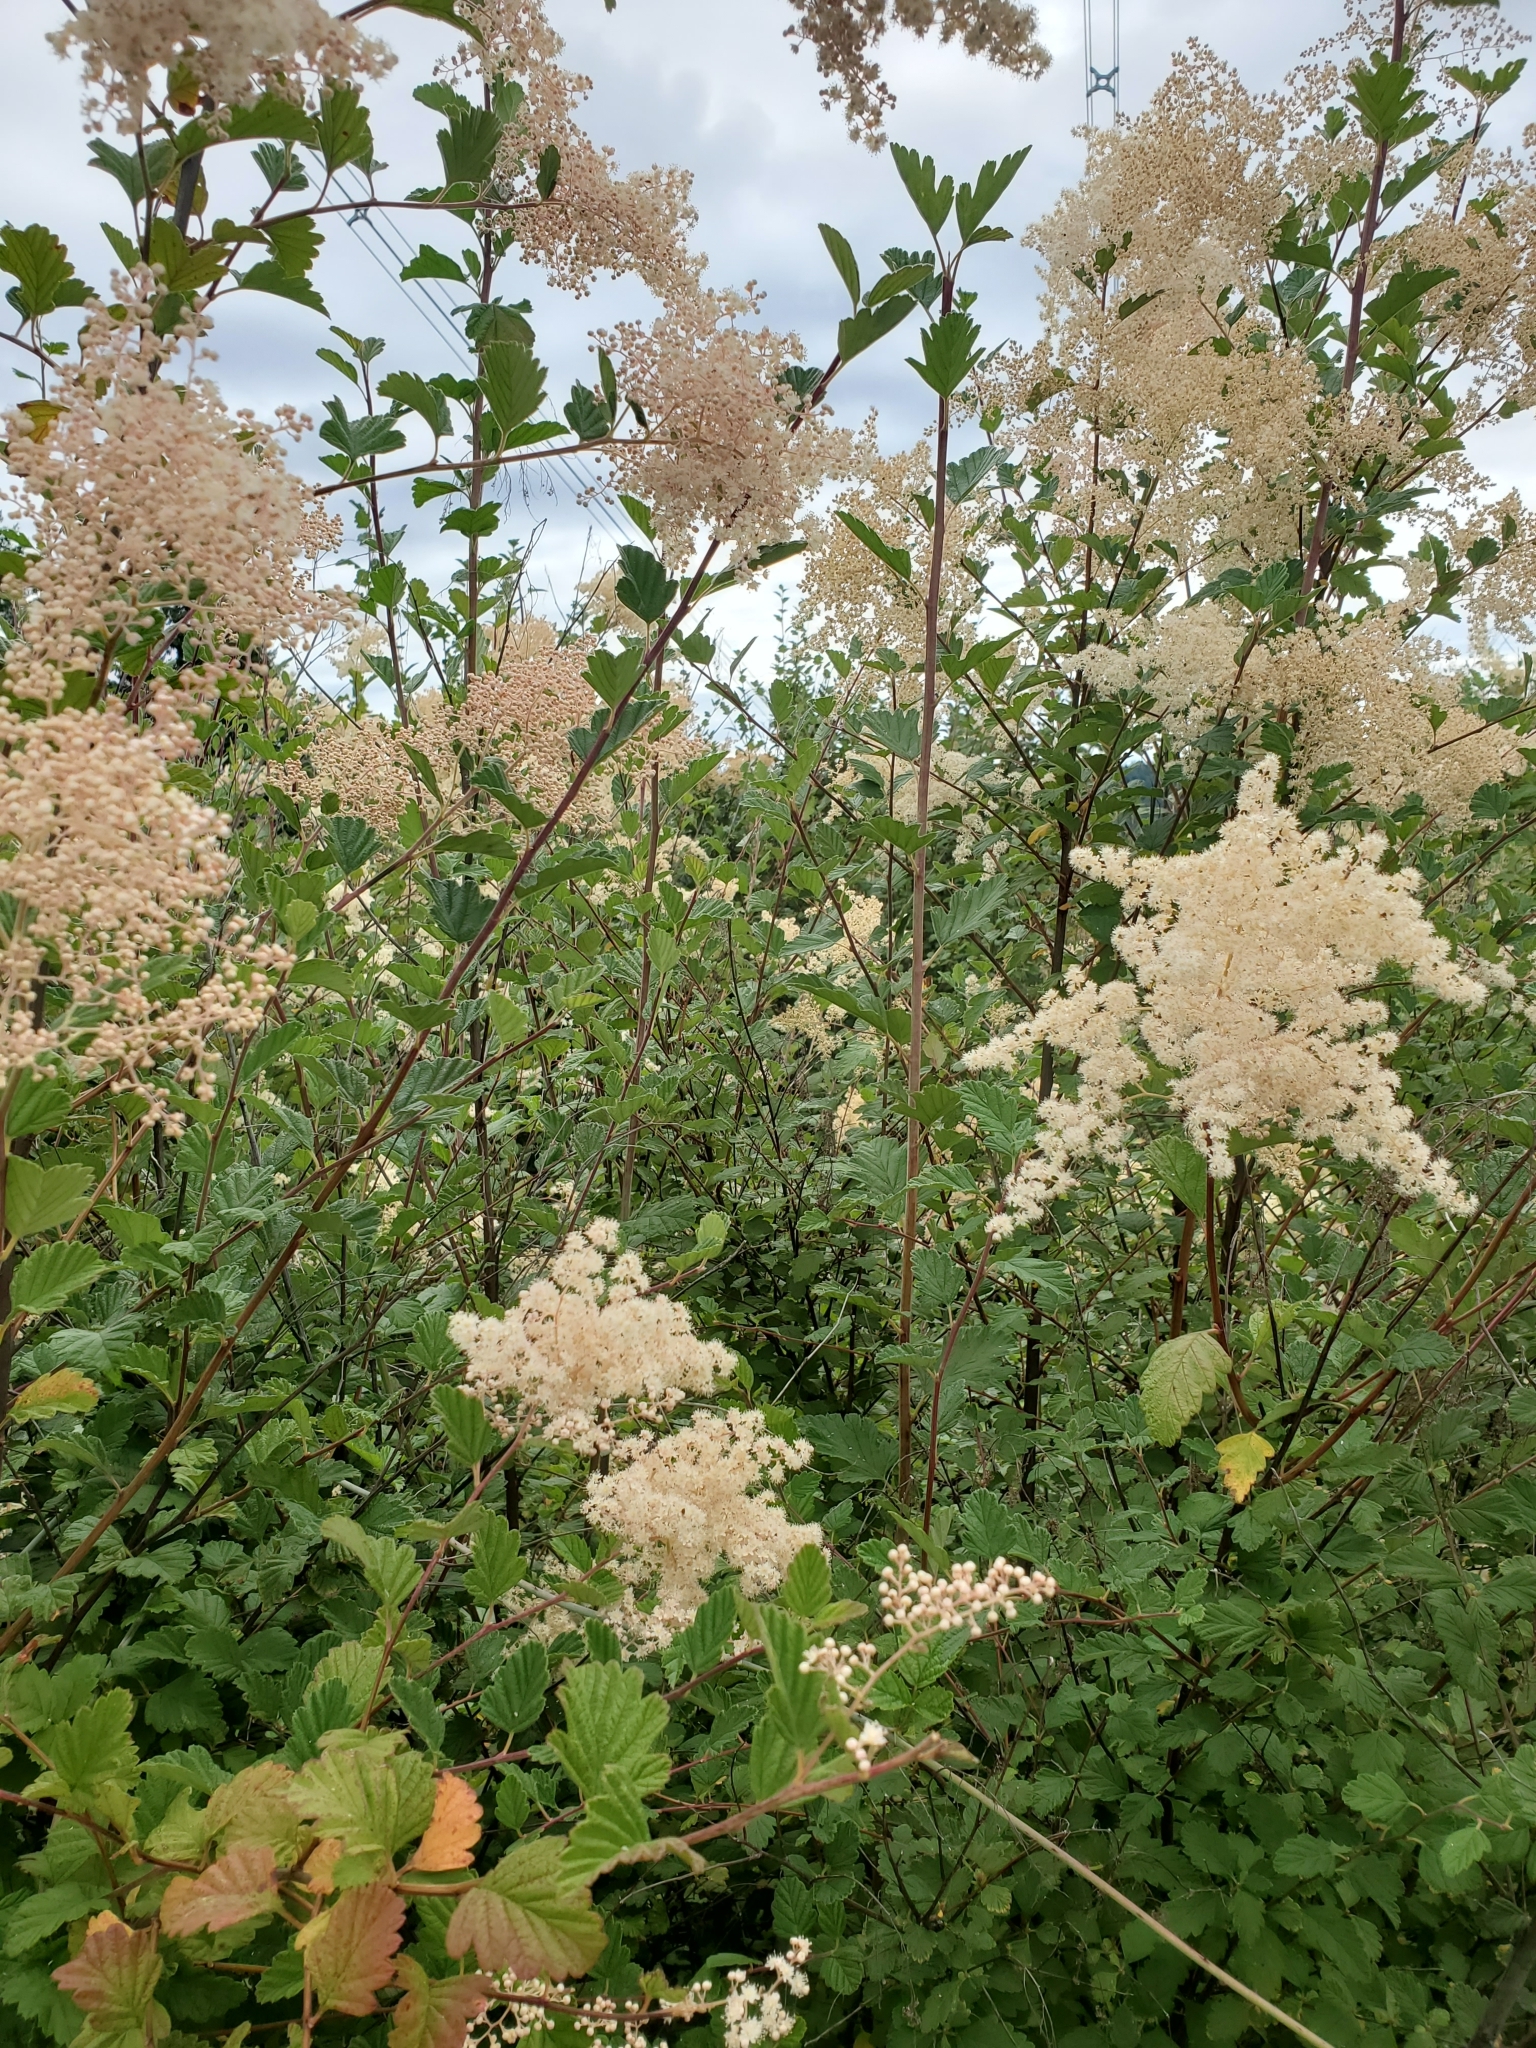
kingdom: Plantae
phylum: Tracheophyta
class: Magnoliopsida
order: Rosales
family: Rosaceae
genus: Holodiscus
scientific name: Holodiscus discolor
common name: Oceanspray
